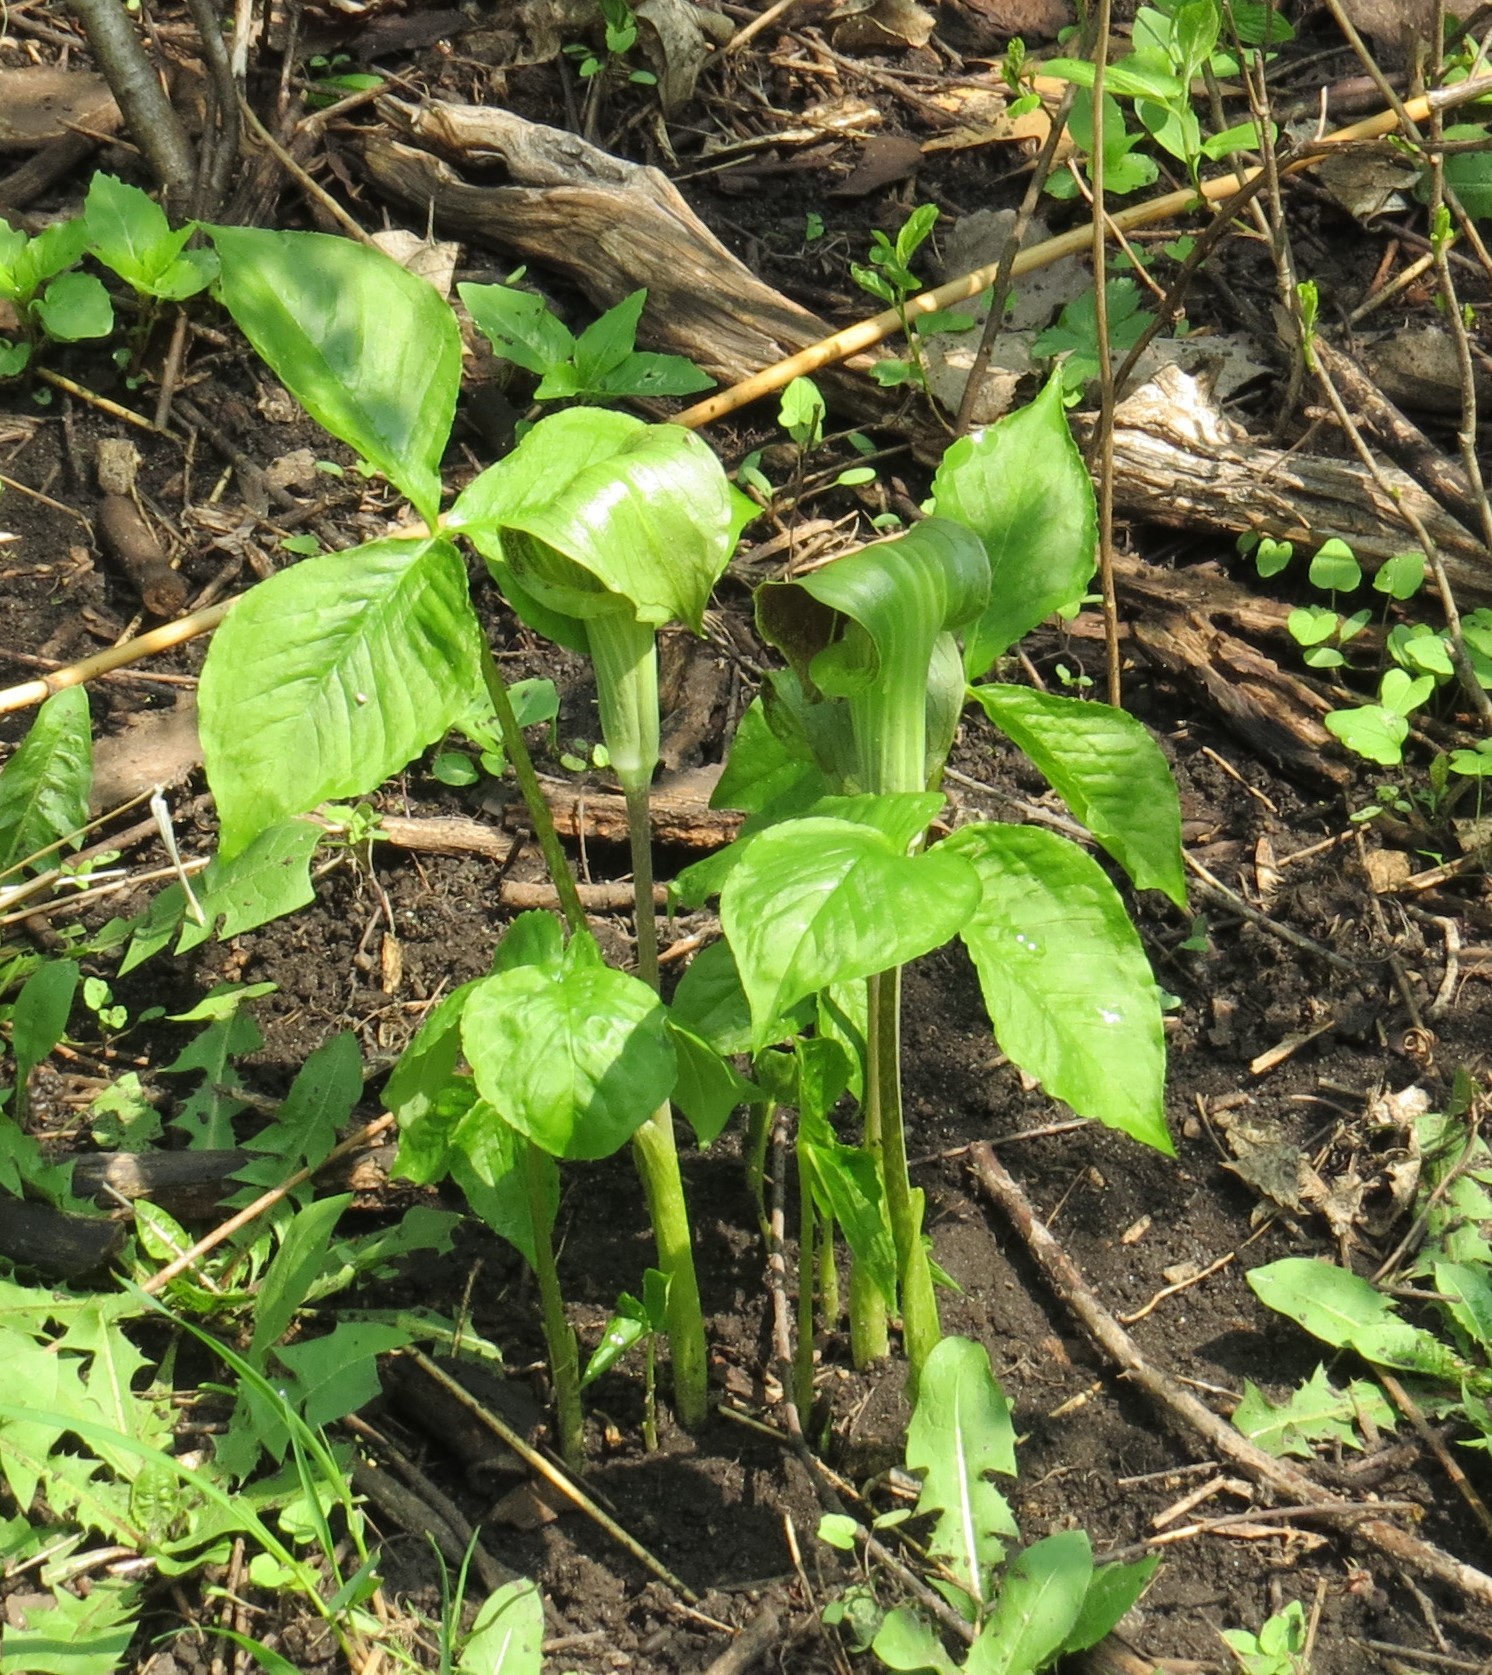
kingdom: Plantae
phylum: Tracheophyta
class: Liliopsida
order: Alismatales
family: Araceae
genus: Arisaema
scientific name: Arisaema triphyllum
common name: Jack-in-the-pulpit
